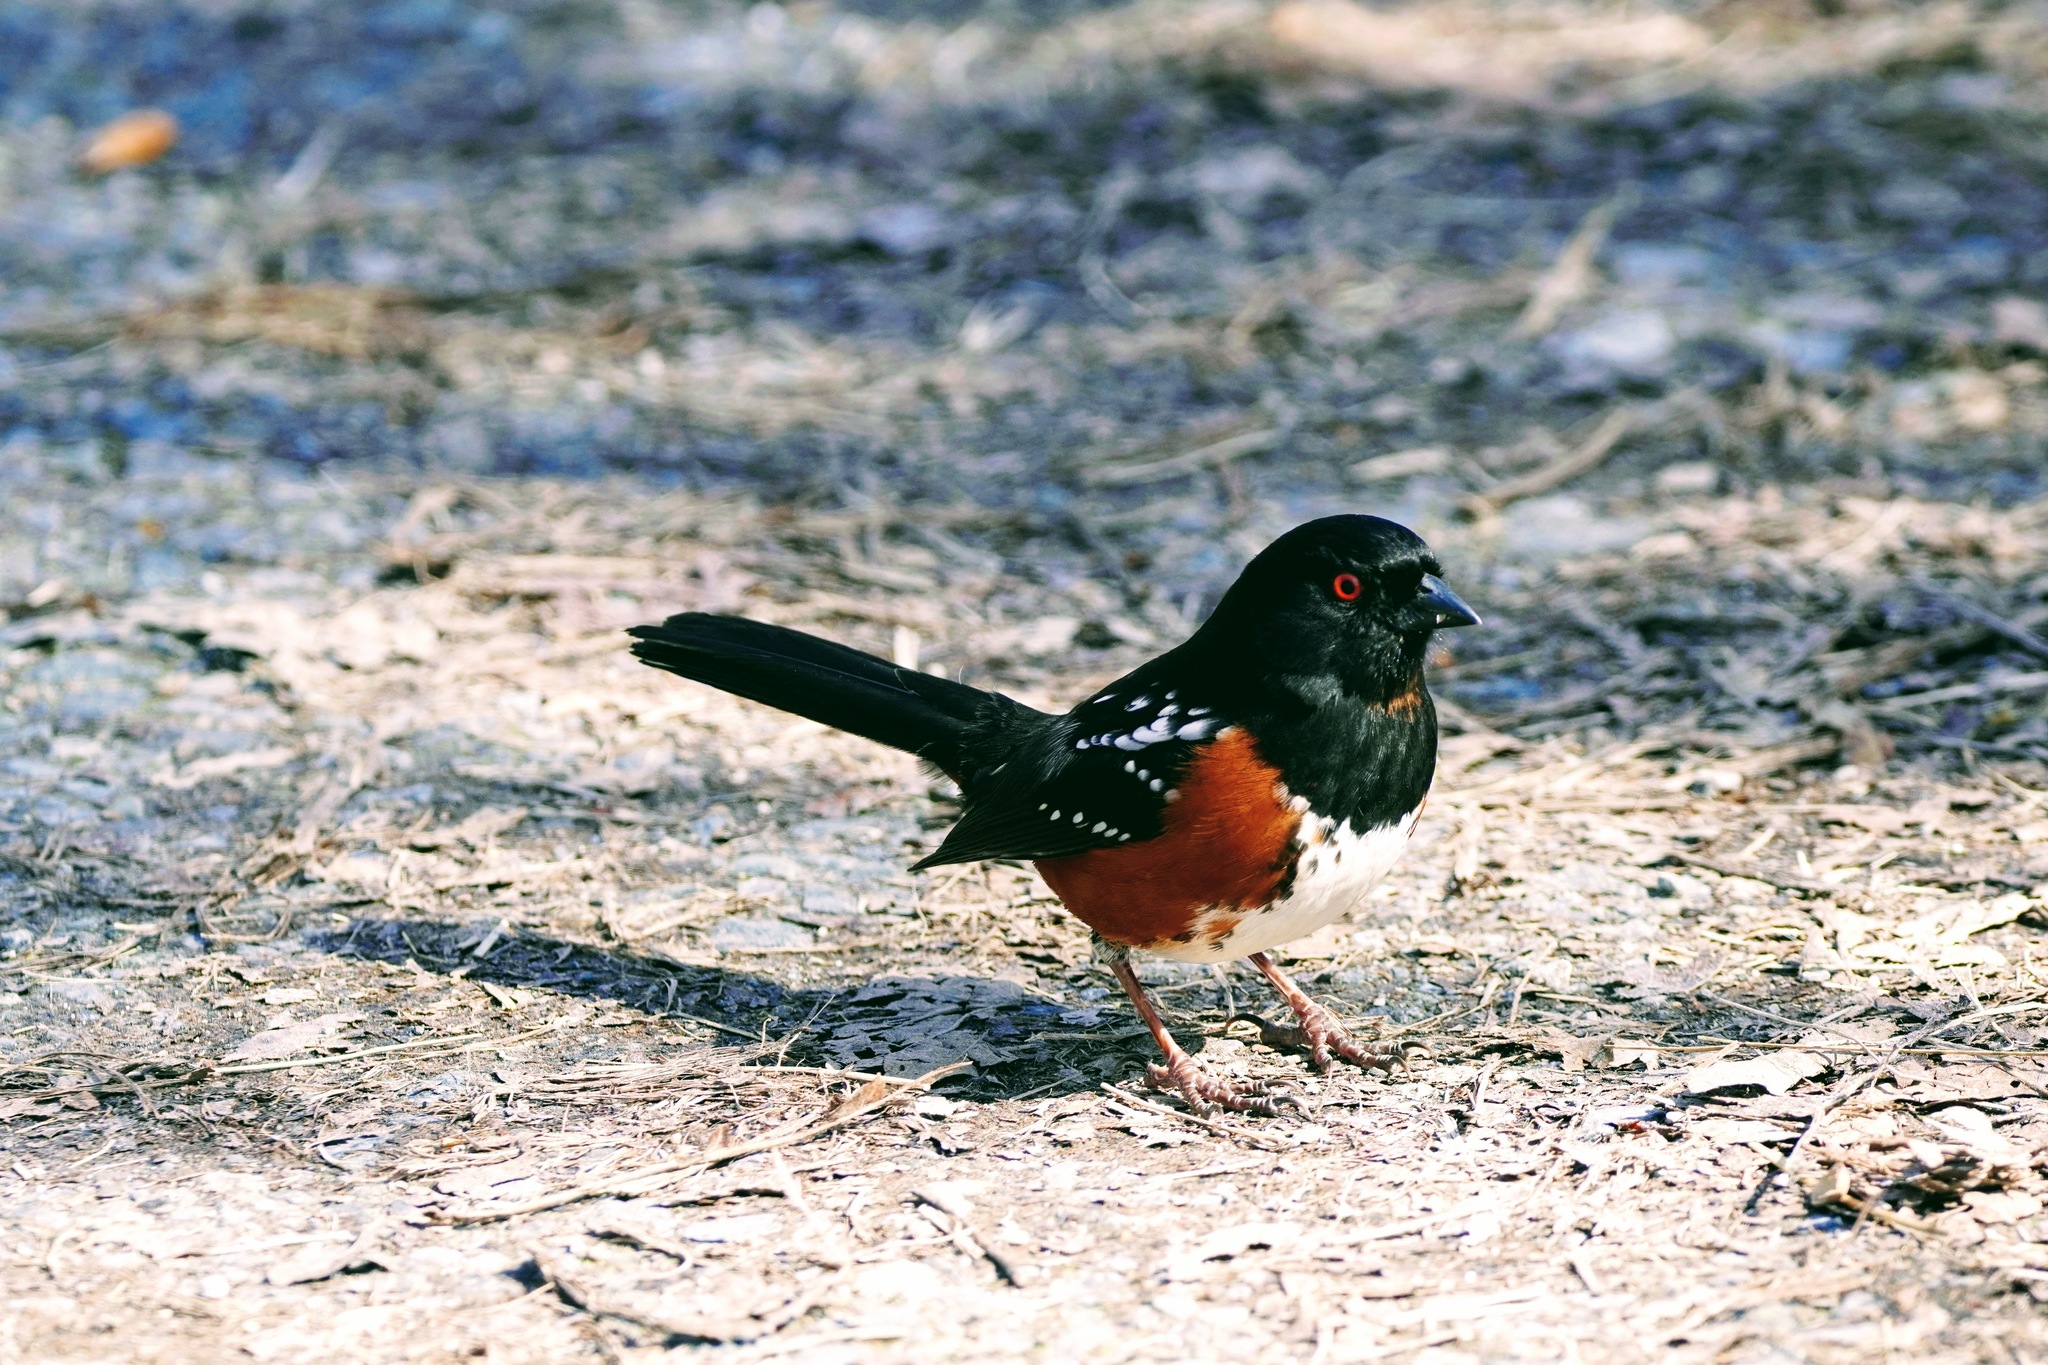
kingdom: Animalia
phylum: Chordata
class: Aves
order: Passeriformes
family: Passerellidae
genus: Pipilo
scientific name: Pipilo maculatus
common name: Spotted towhee
